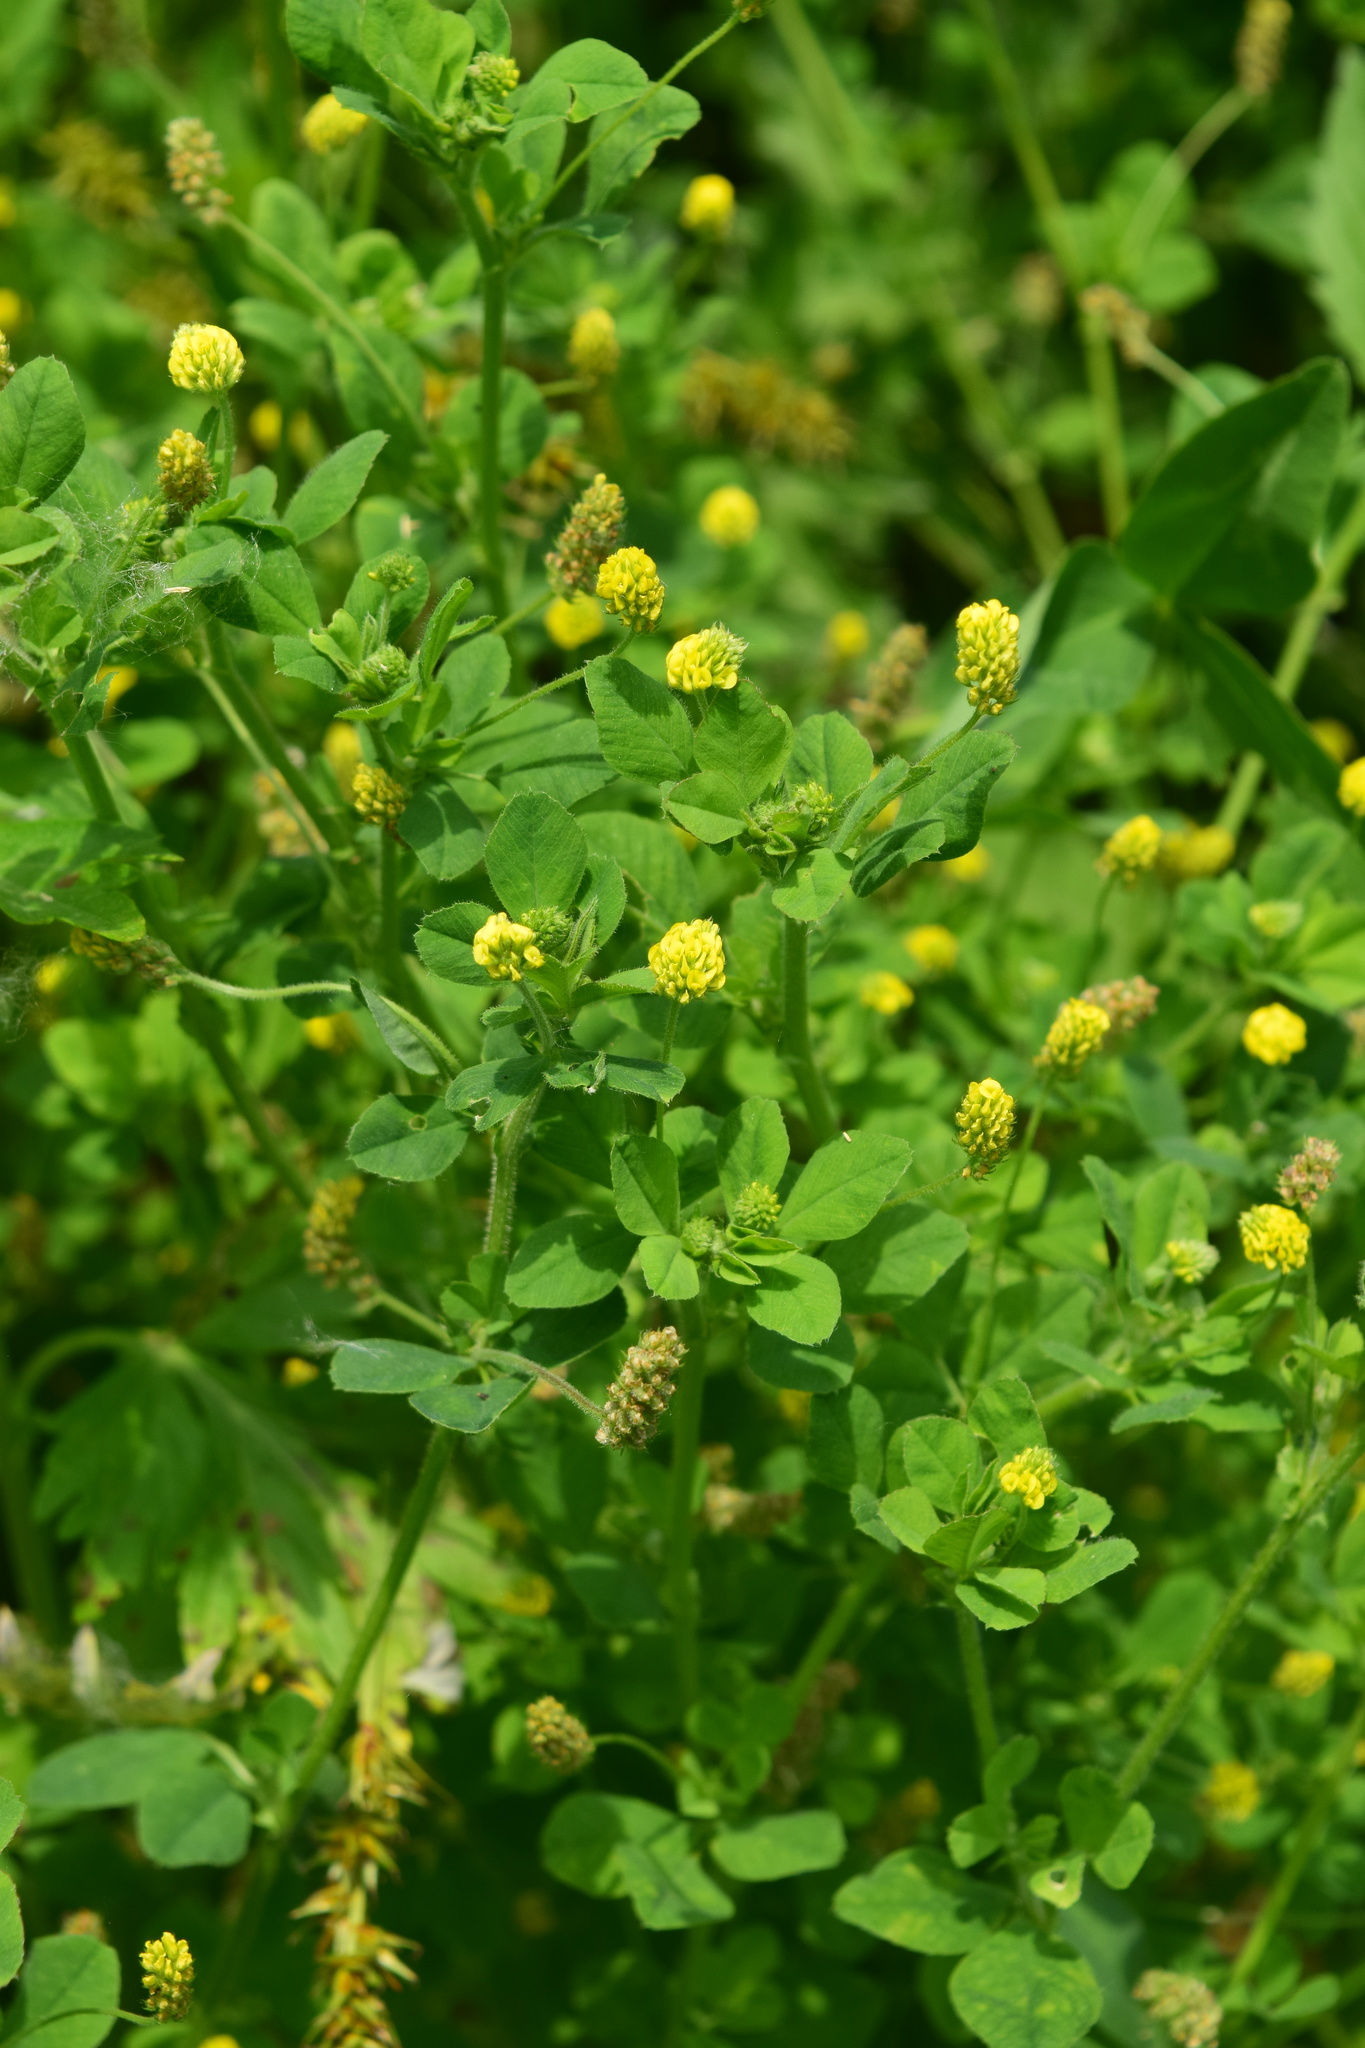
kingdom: Plantae
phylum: Tracheophyta
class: Magnoliopsida
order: Fabales
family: Fabaceae
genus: Medicago
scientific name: Medicago lupulina
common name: Black medick
